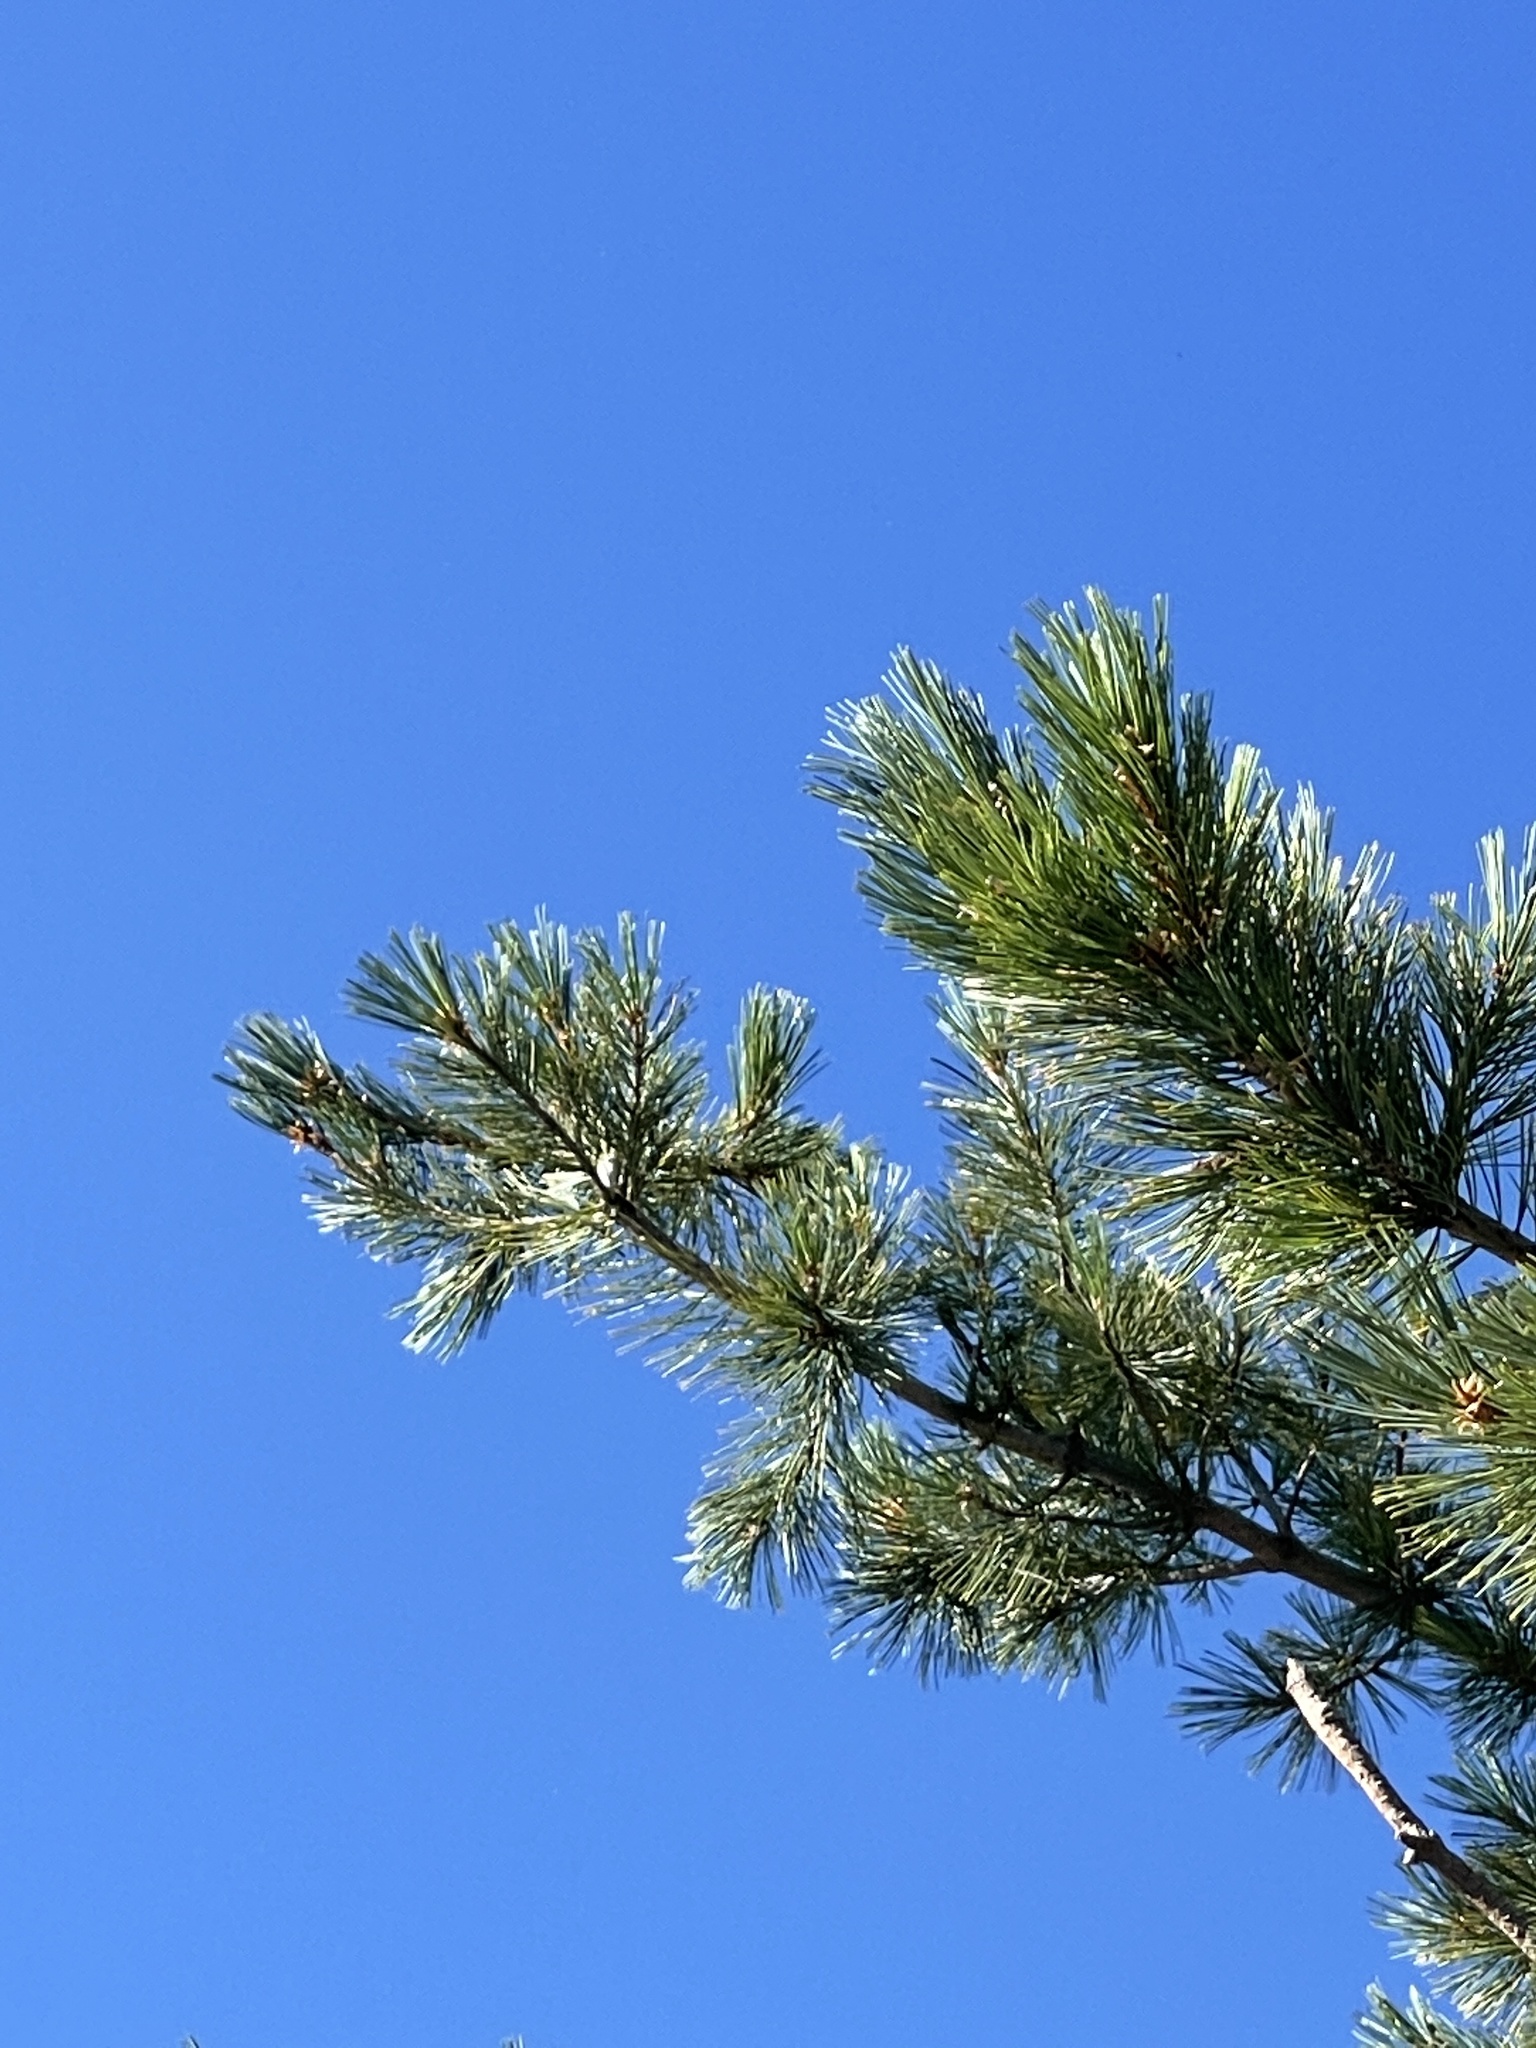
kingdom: Plantae
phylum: Tracheophyta
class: Pinopsida
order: Pinales
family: Pinaceae
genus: Pinus
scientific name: Pinus strobiformis
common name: Southwestern white pine
